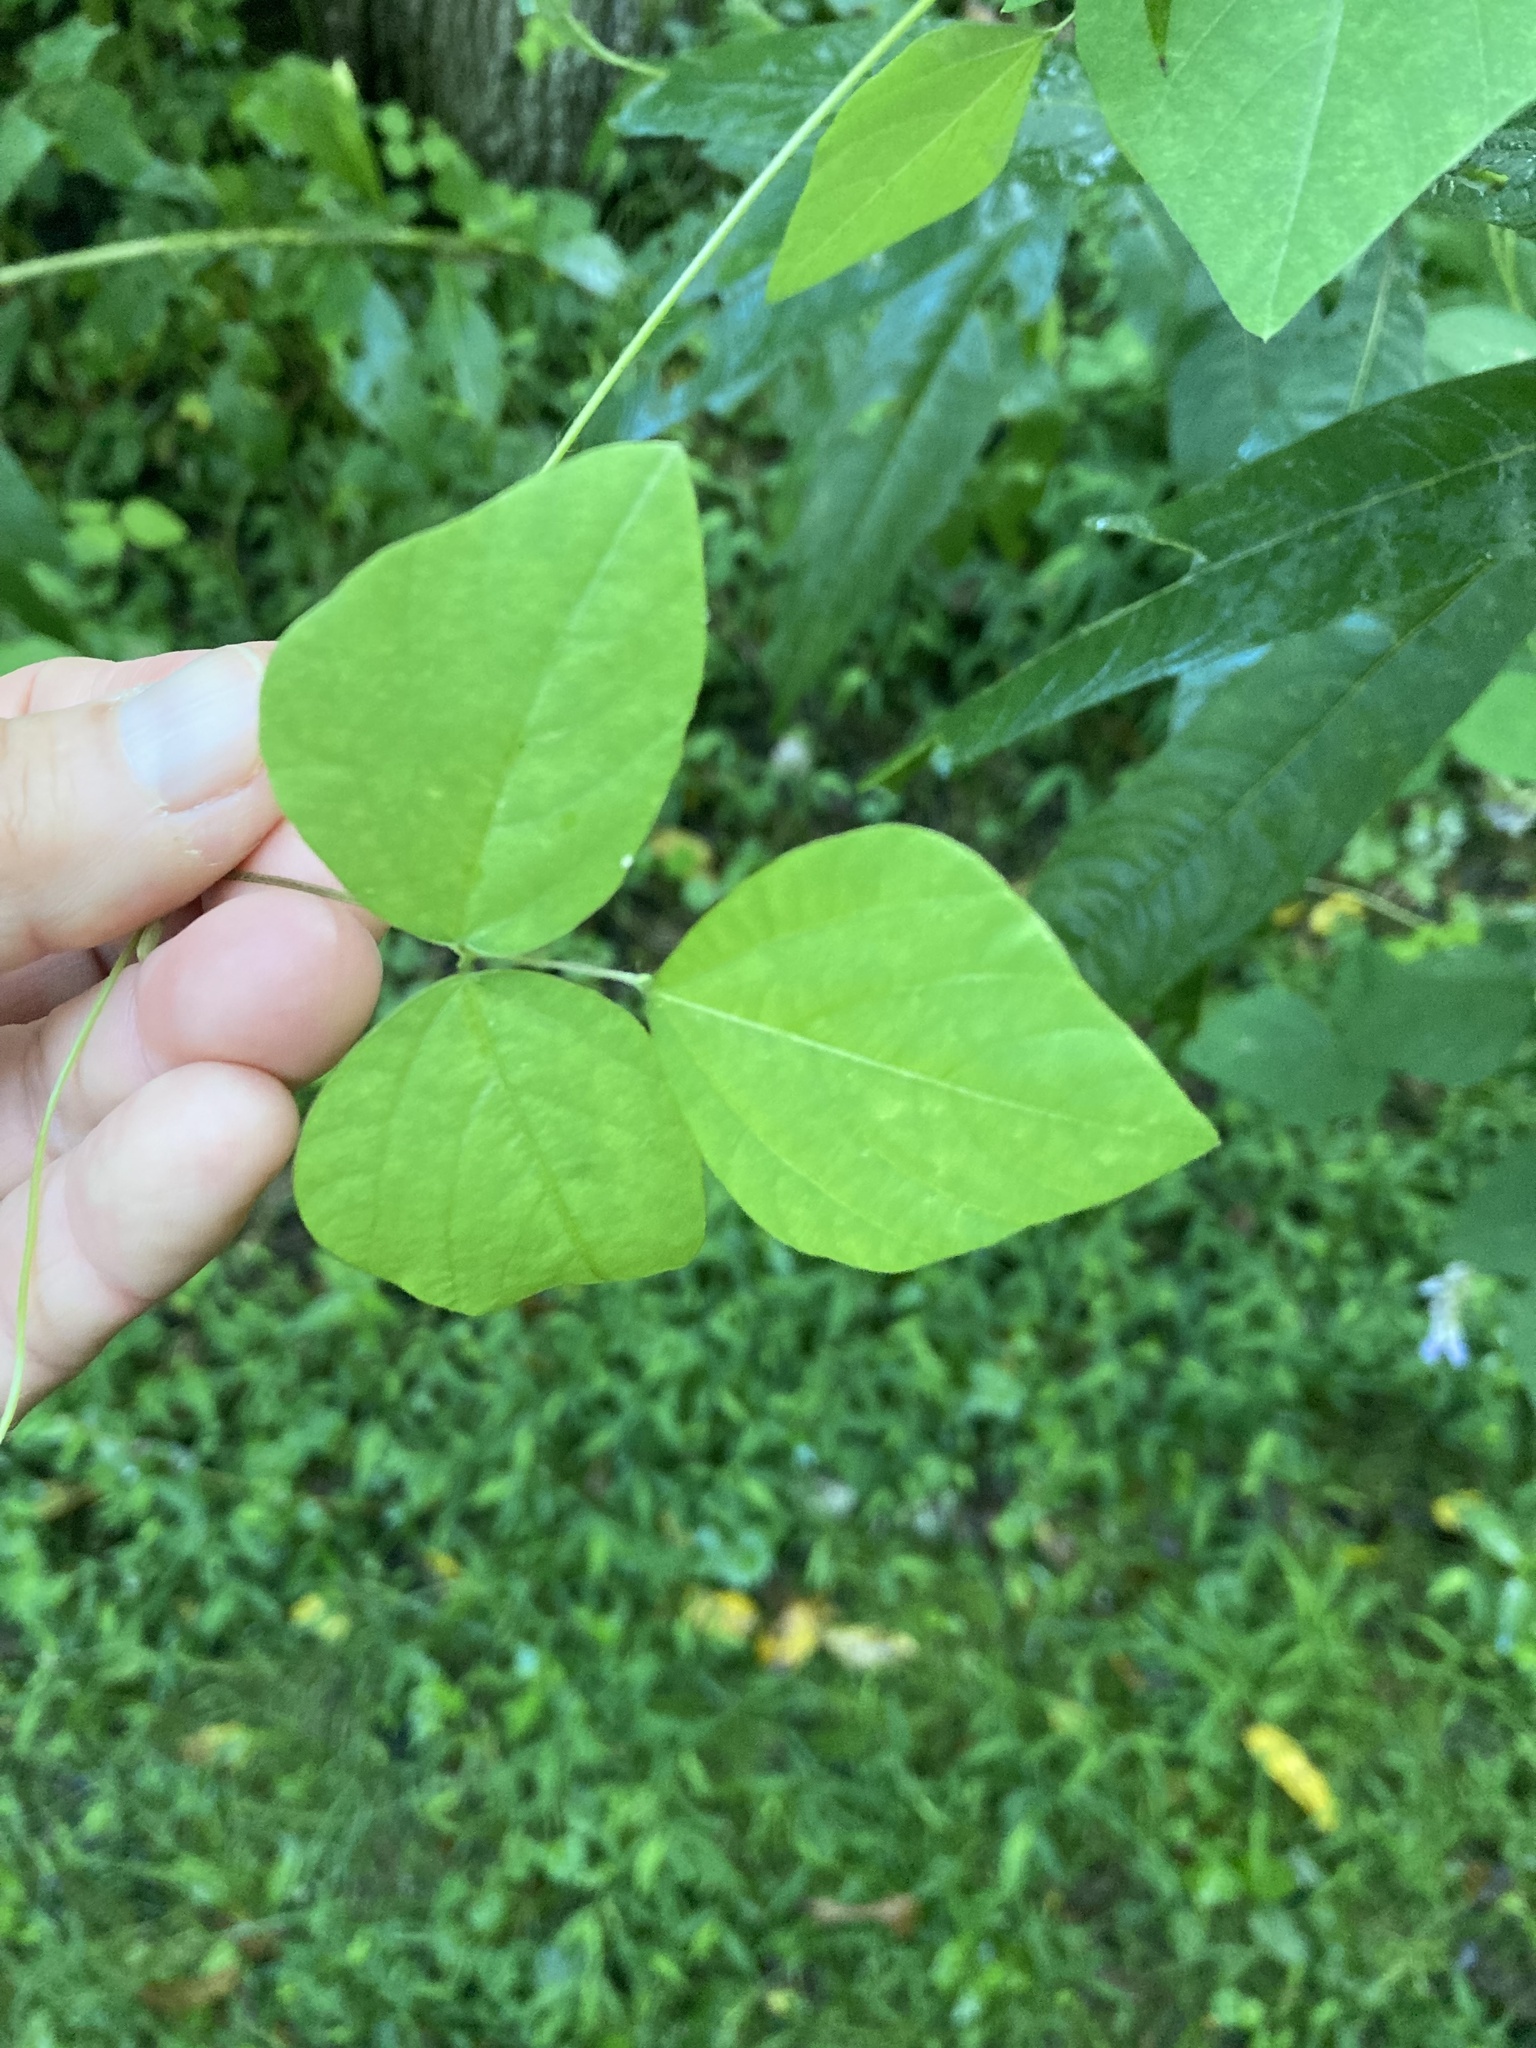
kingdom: Plantae
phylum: Tracheophyta
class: Magnoliopsida
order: Fabales
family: Fabaceae
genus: Amphicarpaea
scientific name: Amphicarpaea bracteata
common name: American hog peanut
